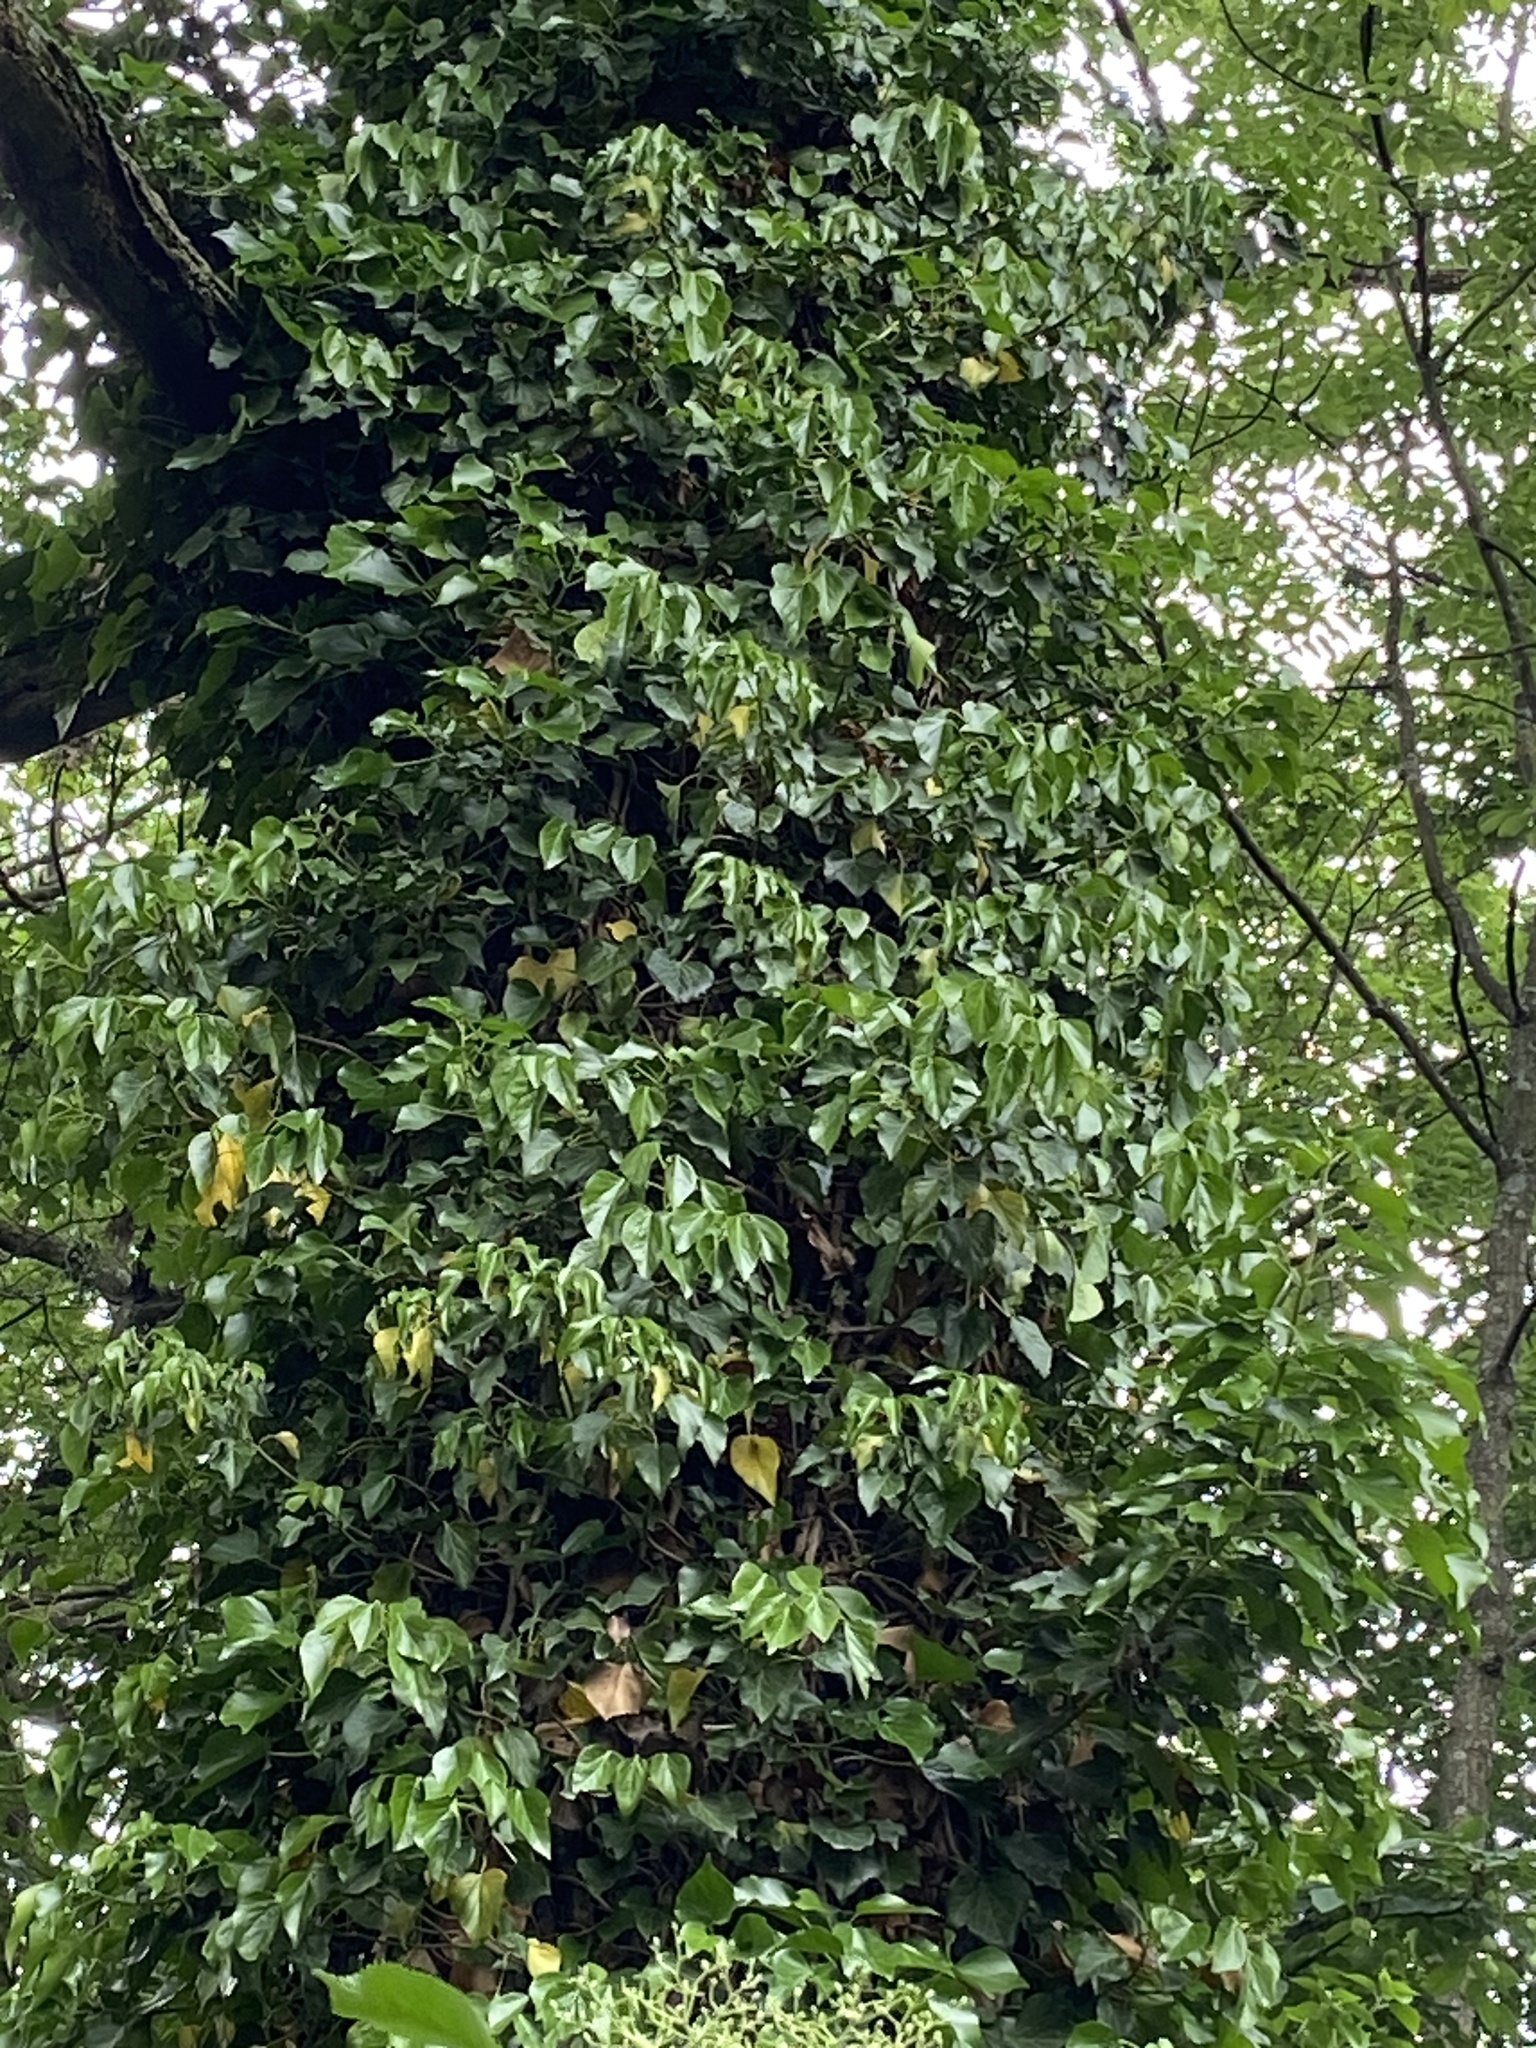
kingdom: Plantae
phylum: Tracheophyta
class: Magnoliopsida
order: Apiales
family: Araliaceae
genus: Hedera
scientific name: Hedera helix
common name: Ivy
